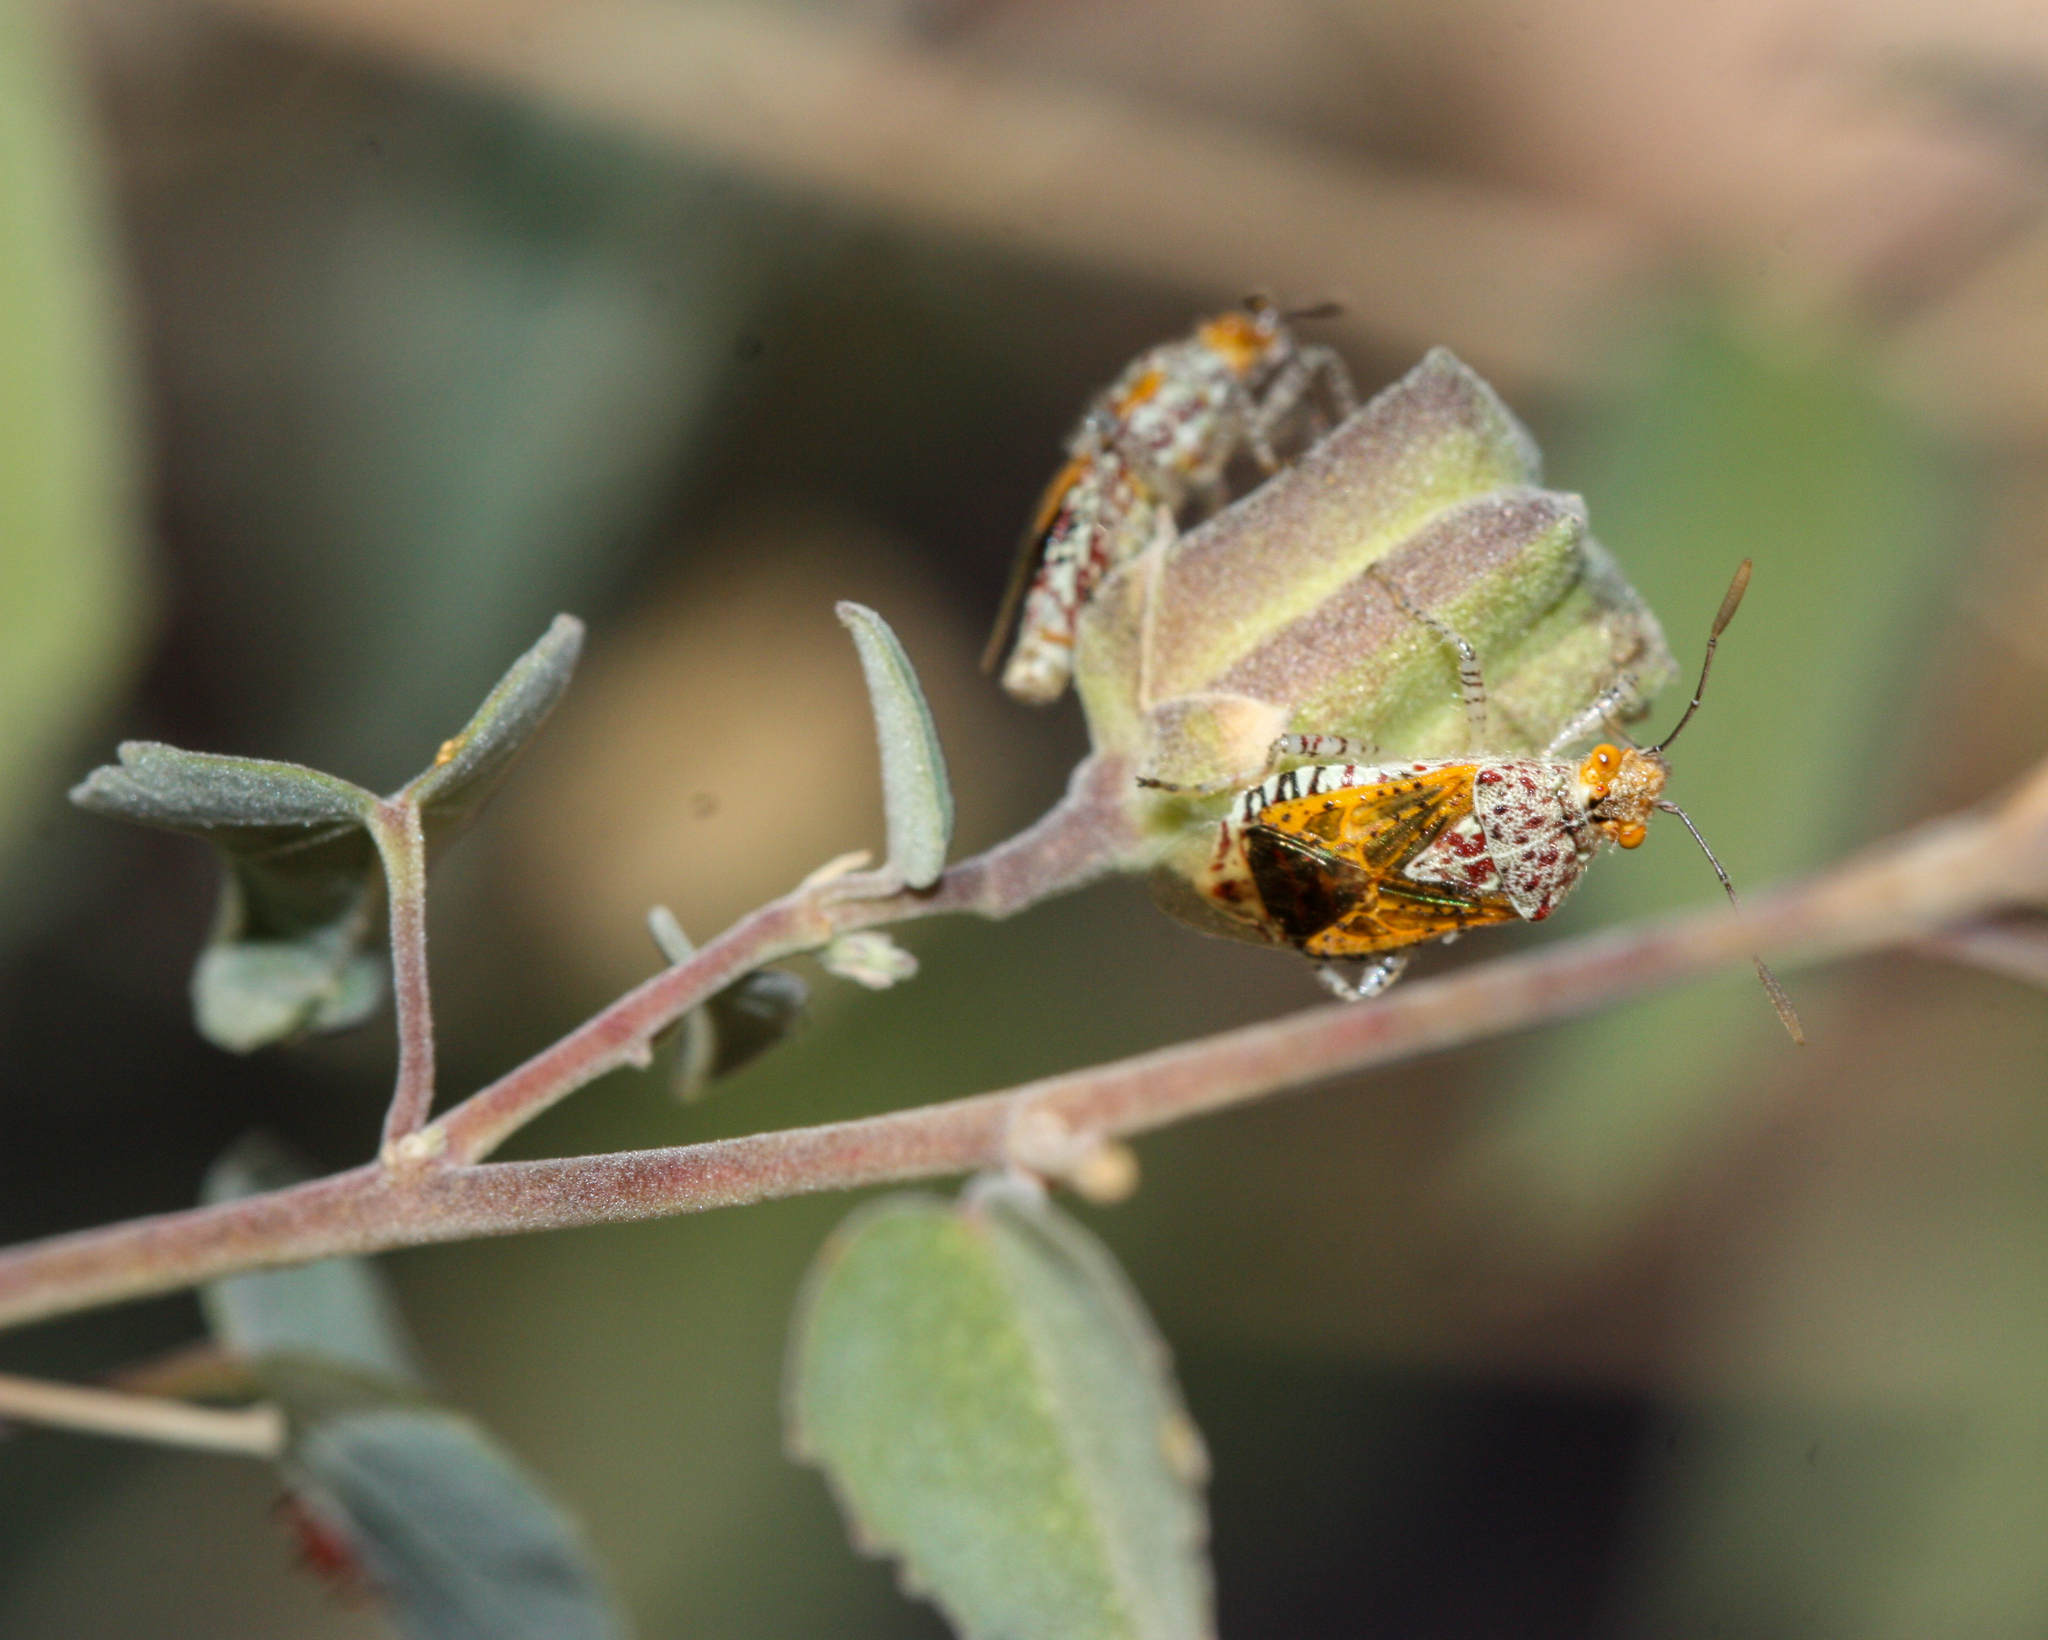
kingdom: Animalia
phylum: Arthropoda
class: Insecta
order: Hemiptera
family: Rhopalidae
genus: Niesthrea
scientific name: Niesthrea louisianica
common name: Scentless plant bug
